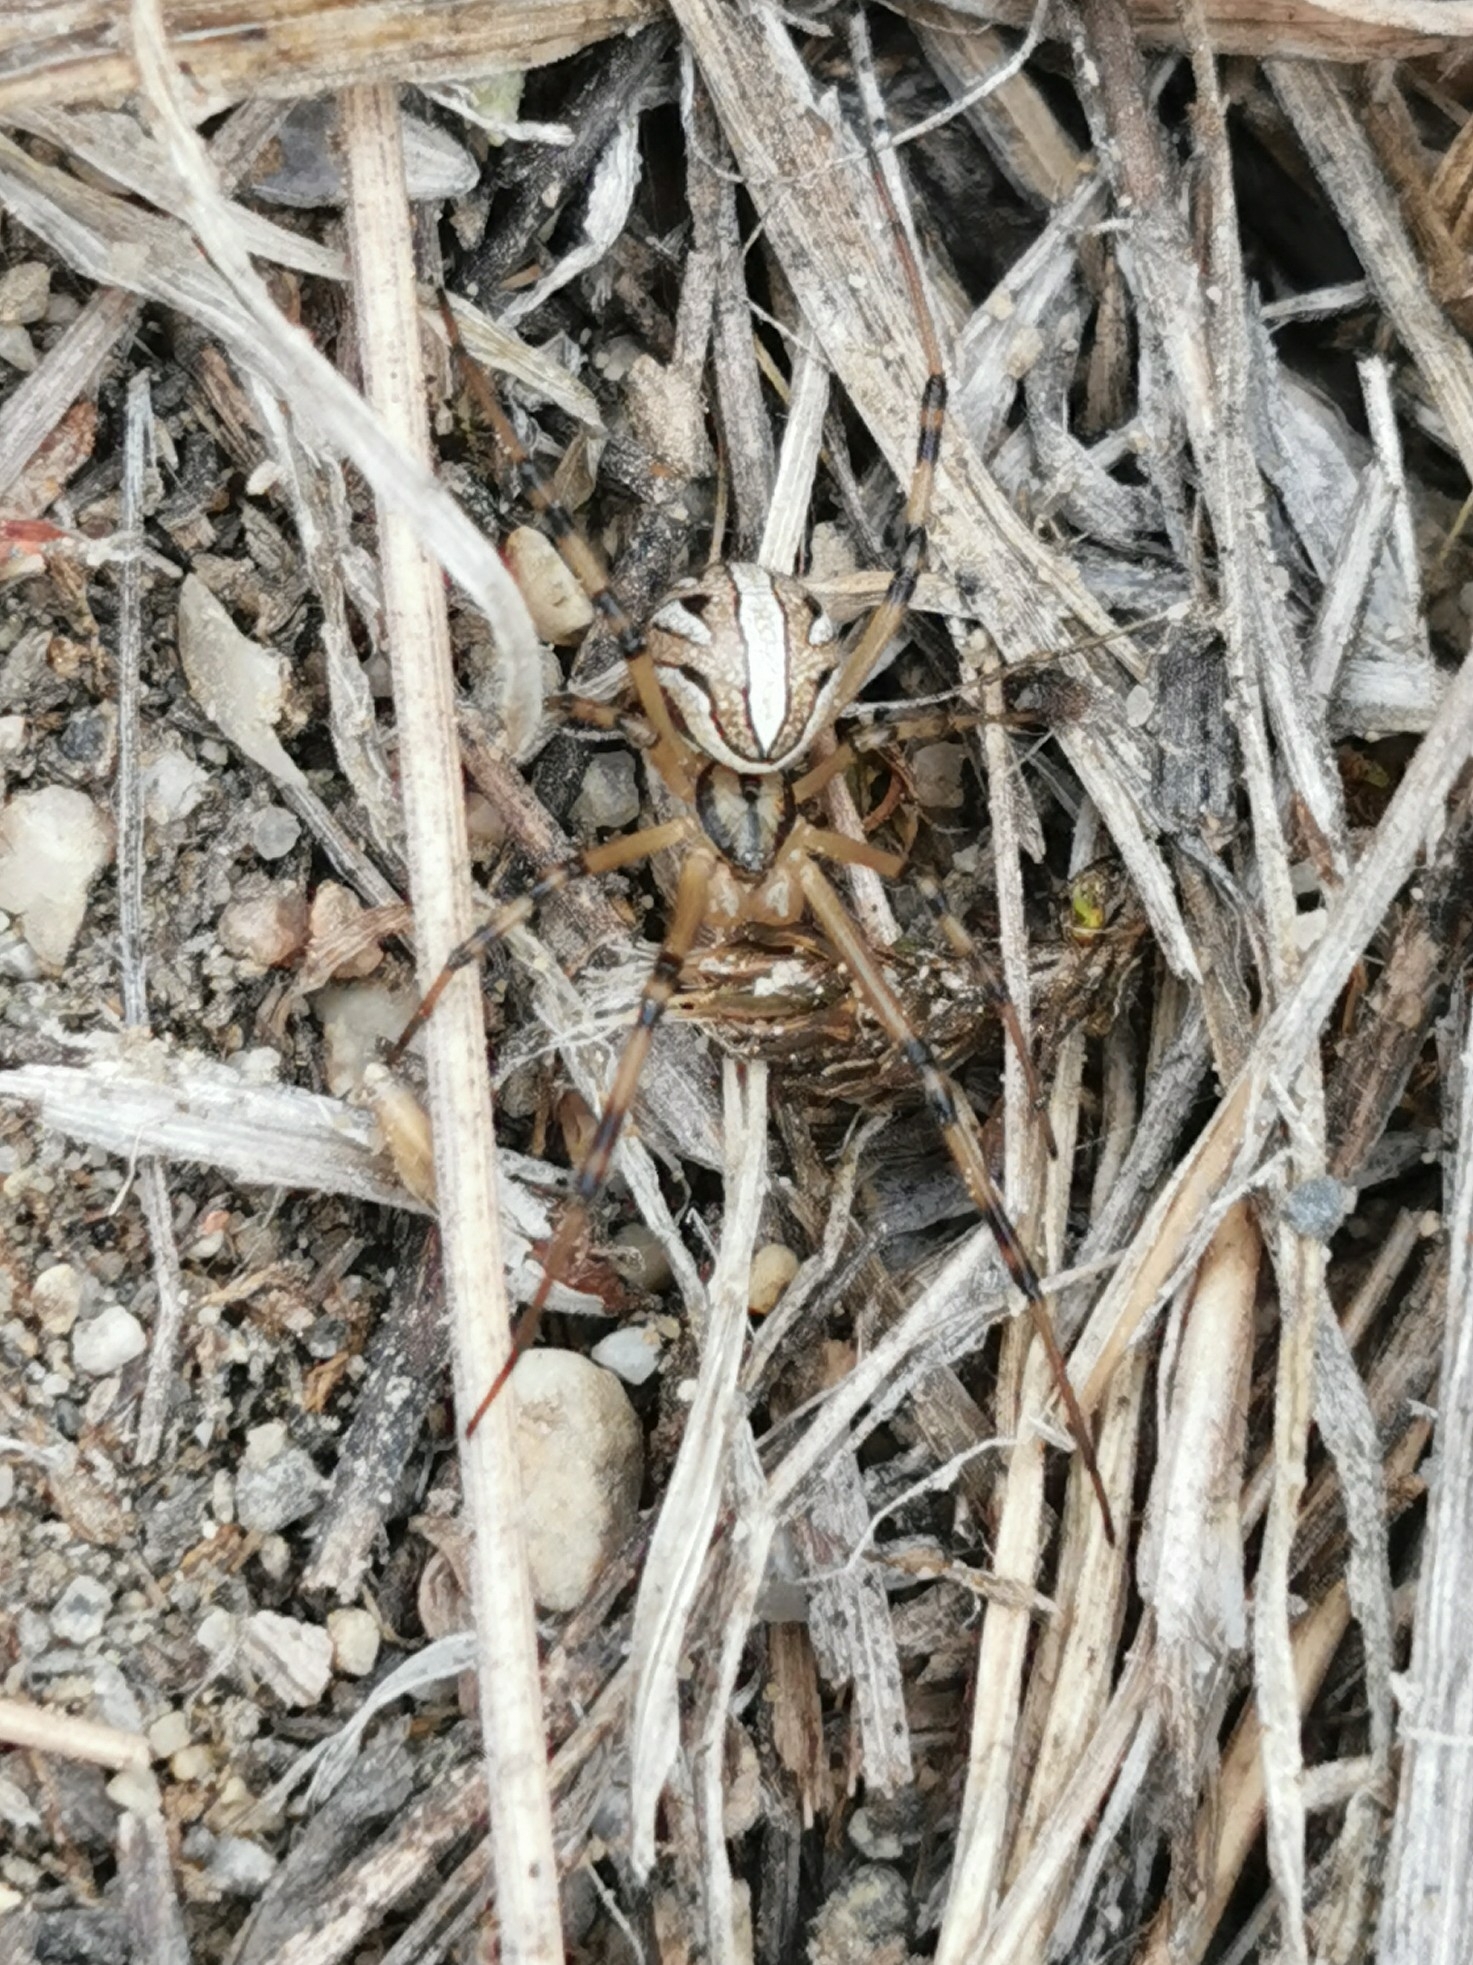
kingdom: Animalia
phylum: Arthropoda
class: Arachnida
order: Araneae
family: Theridiidae
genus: Latrodectus
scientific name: Latrodectus hesperus
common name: Western black widow
